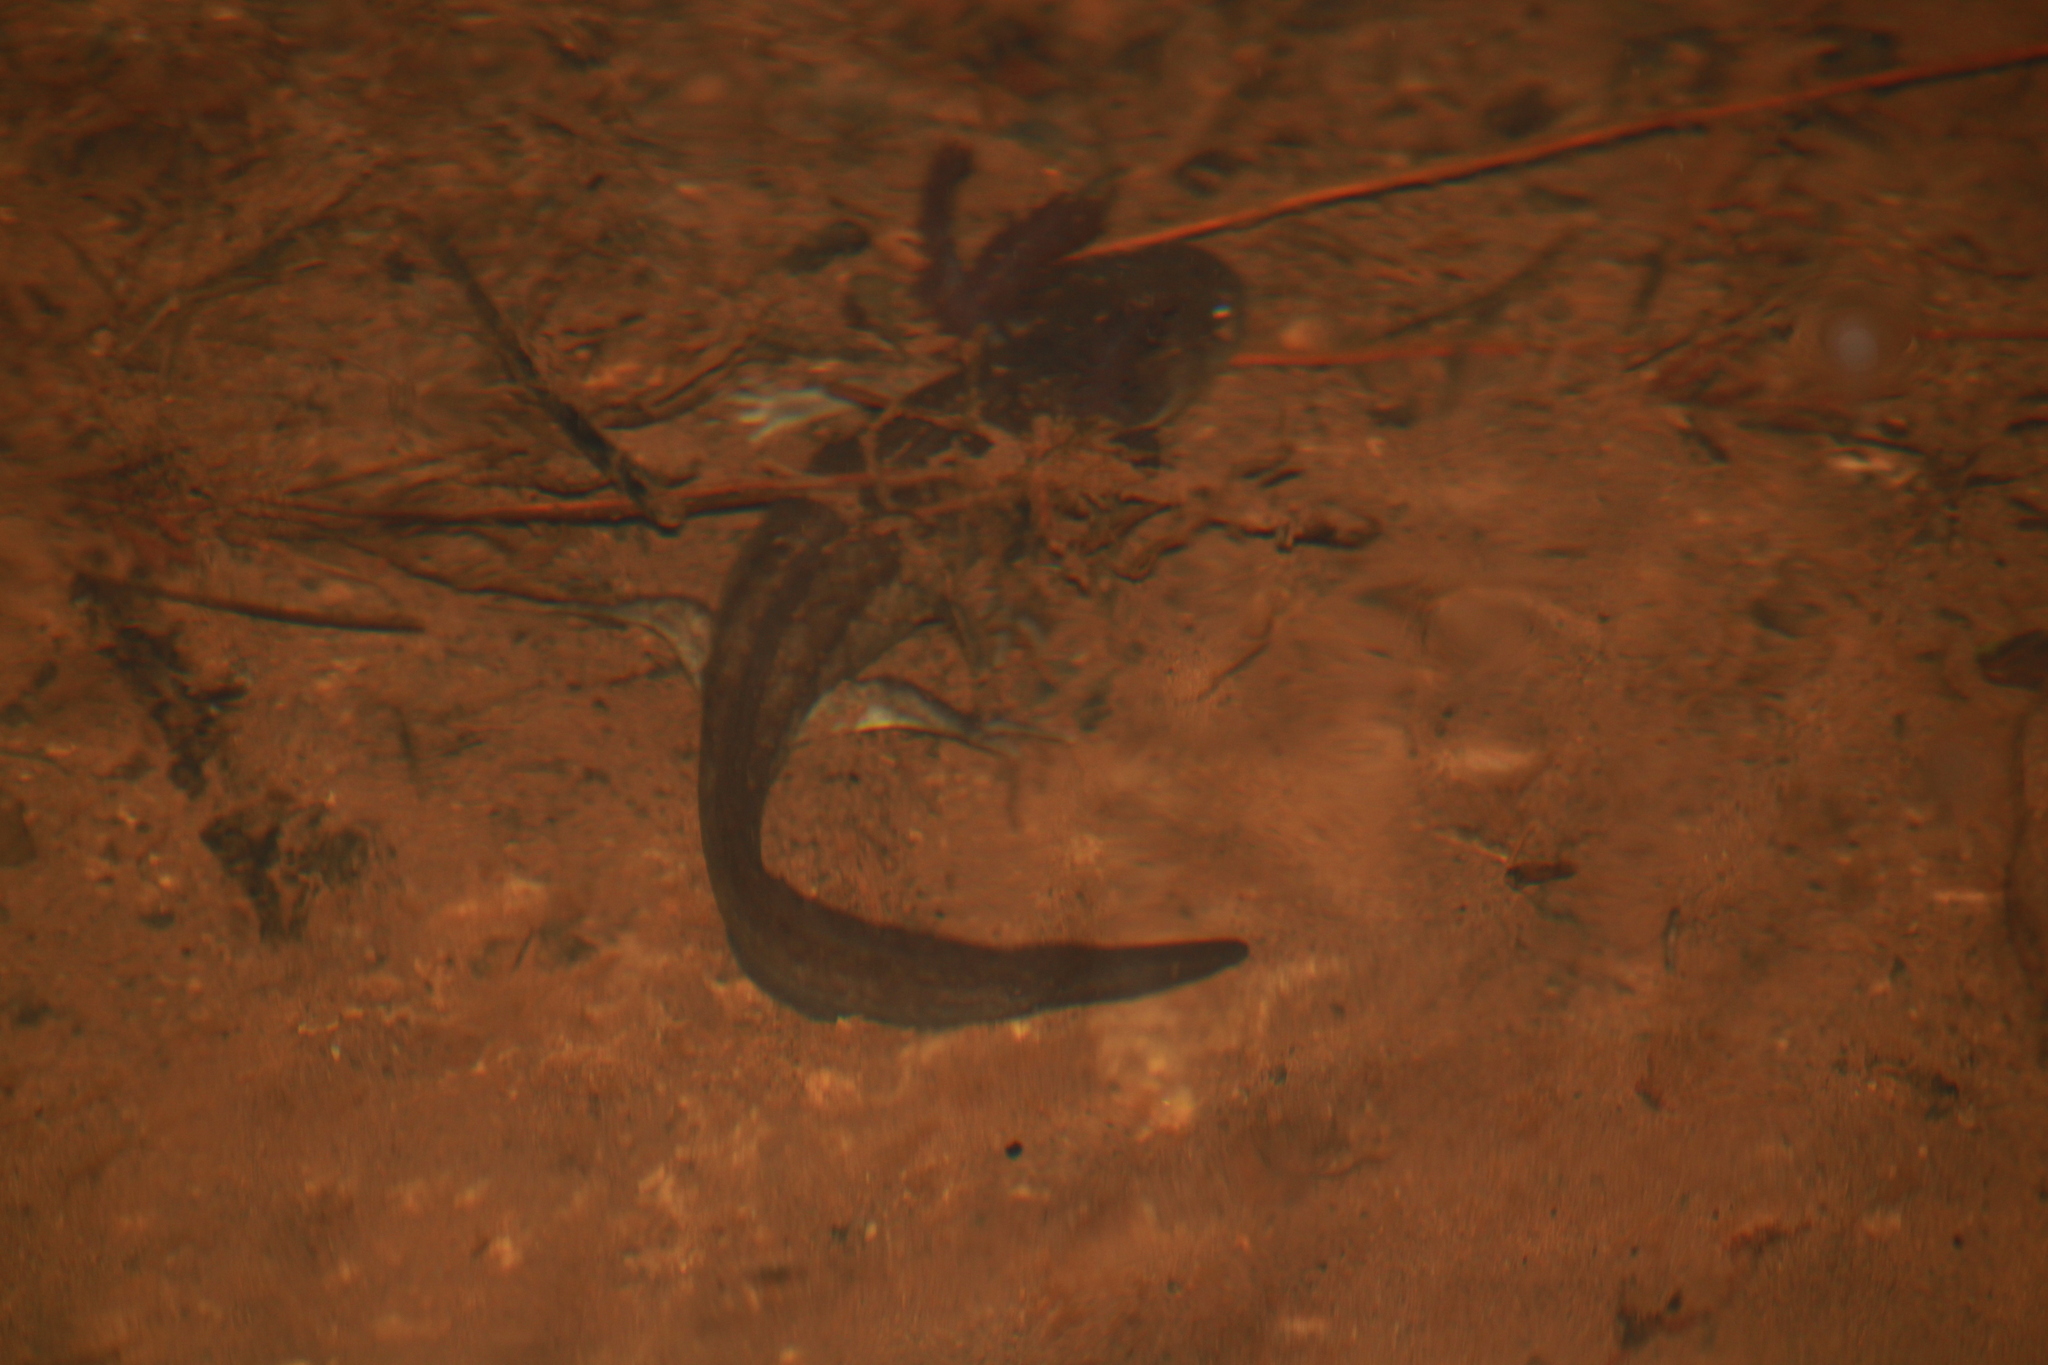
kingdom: Animalia
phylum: Chordata
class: Amphibia
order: Caudata
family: Ambystomatidae
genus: Ambystoma
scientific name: Ambystoma flavipiperatum
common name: Yellow-peppered salamander
